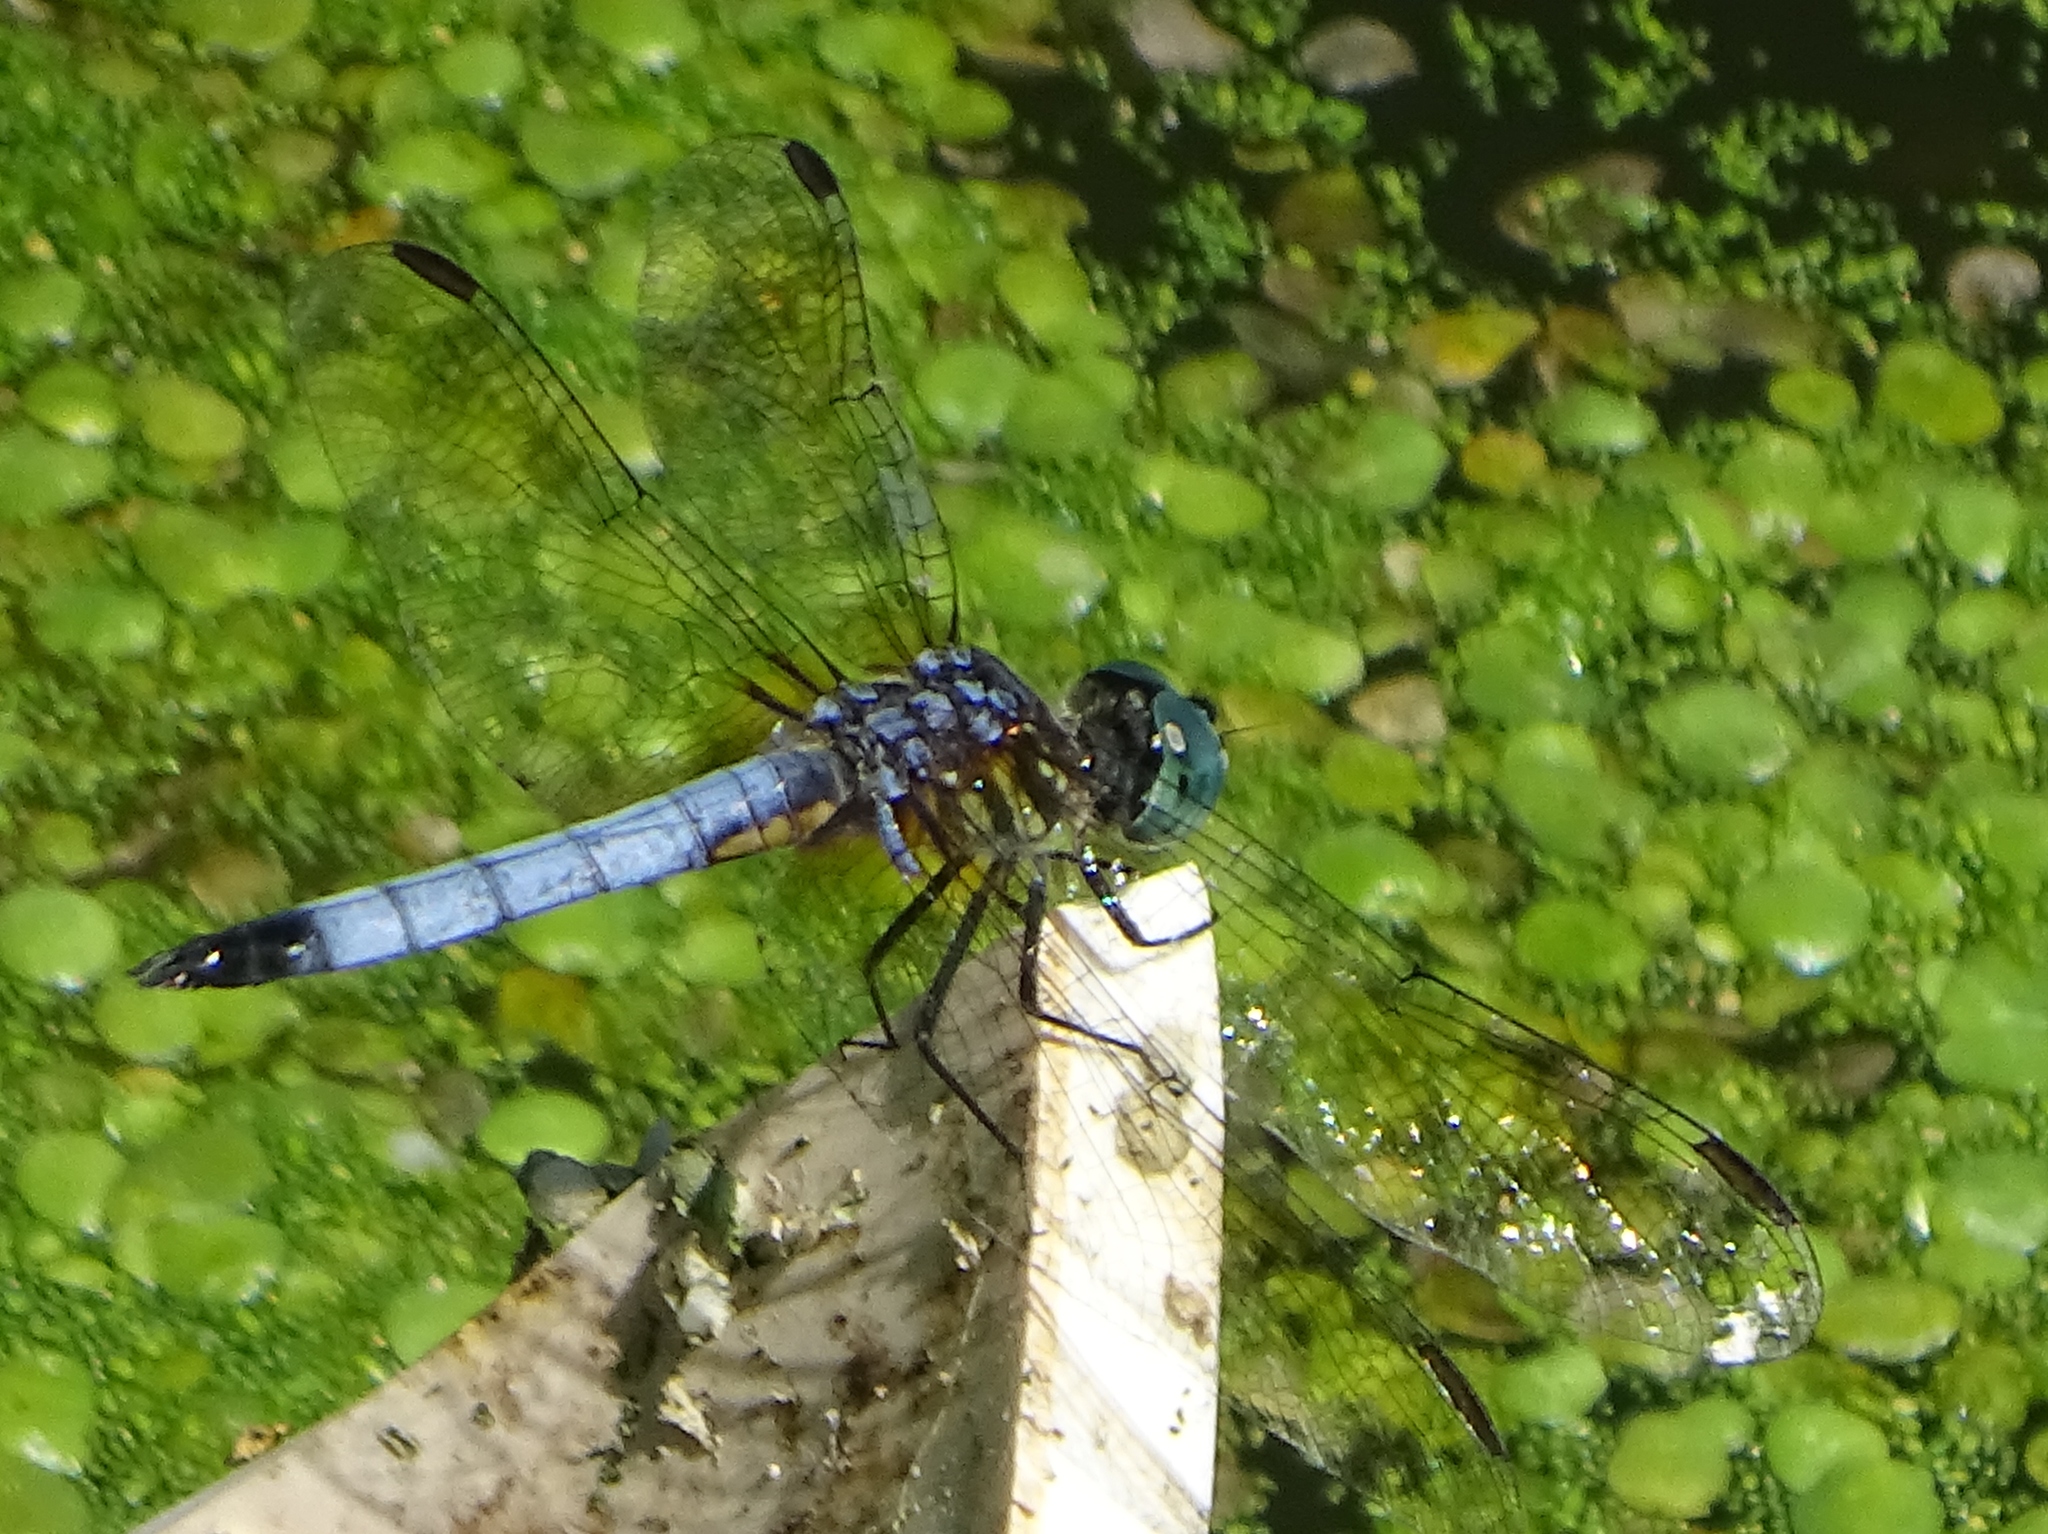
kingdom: Animalia
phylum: Arthropoda
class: Insecta
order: Odonata
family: Libellulidae
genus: Pachydiplax
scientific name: Pachydiplax longipennis
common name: Blue dasher
